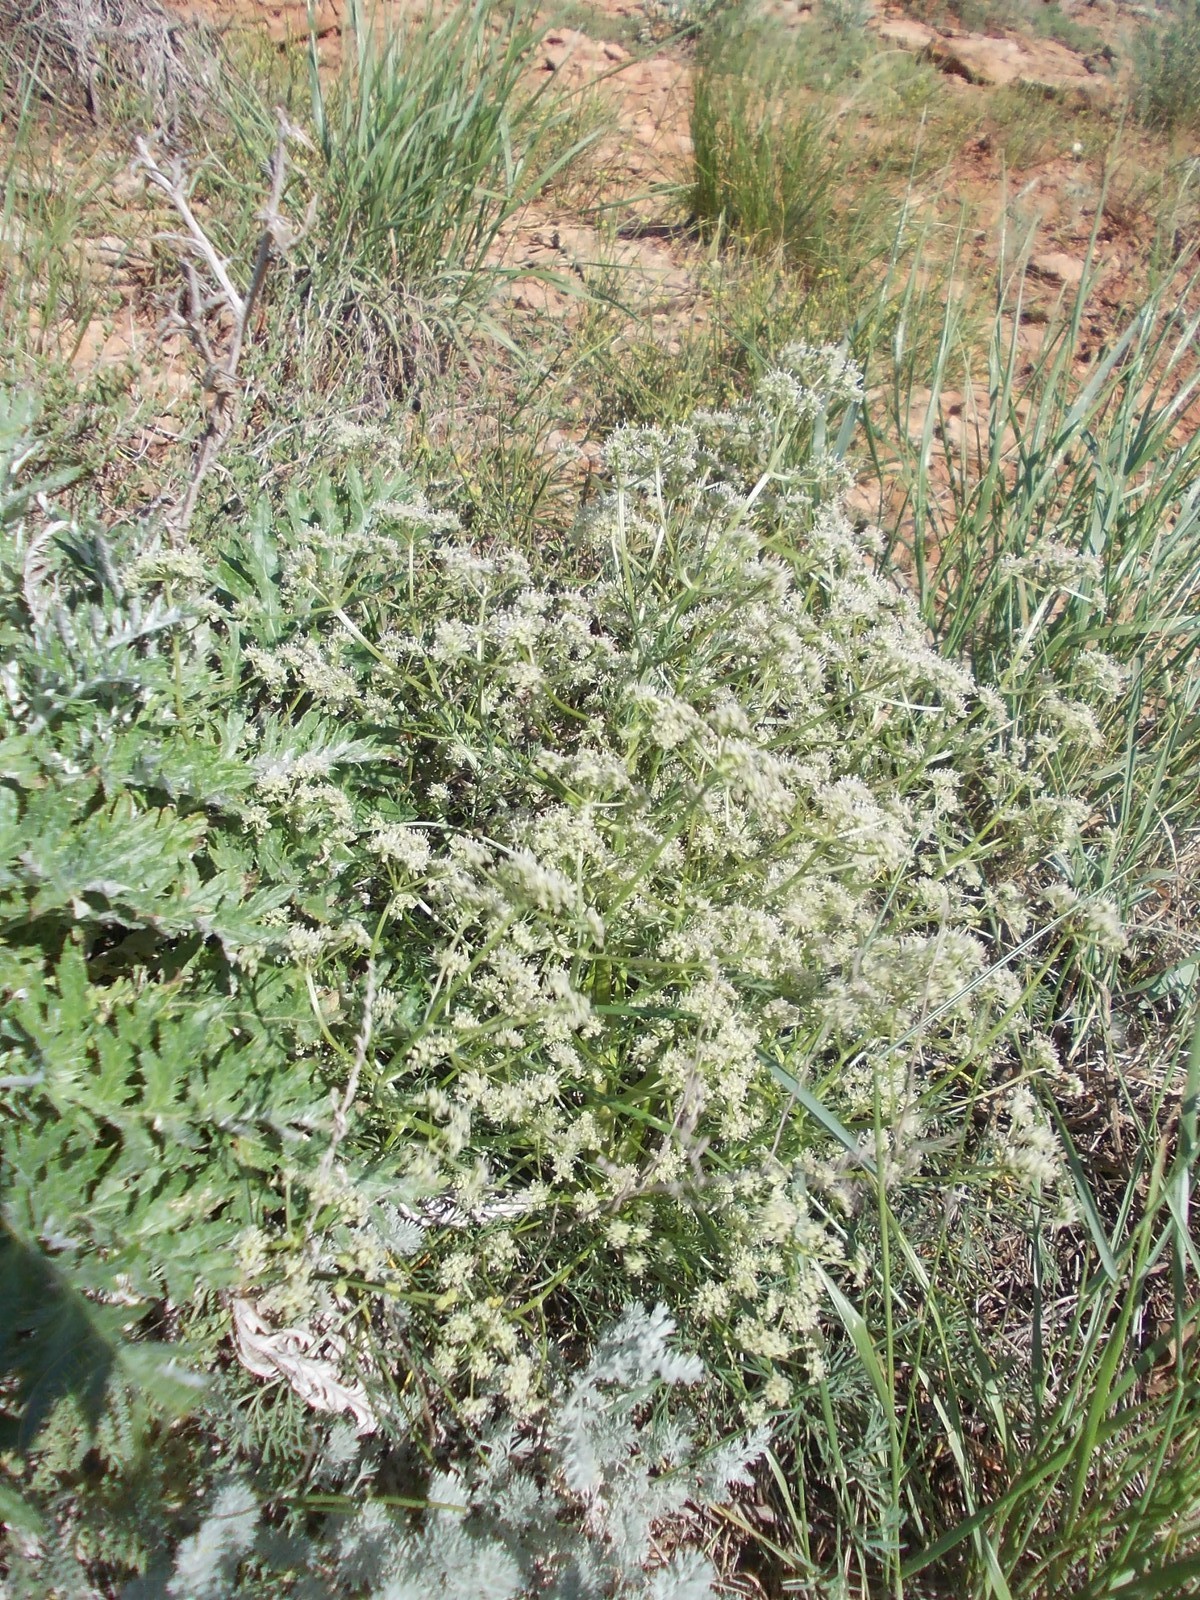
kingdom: Plantae
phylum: Tracheophyta
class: Magnoliopsida
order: Apiales
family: Apiaceae
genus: Trinia
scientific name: Trinia hispida
